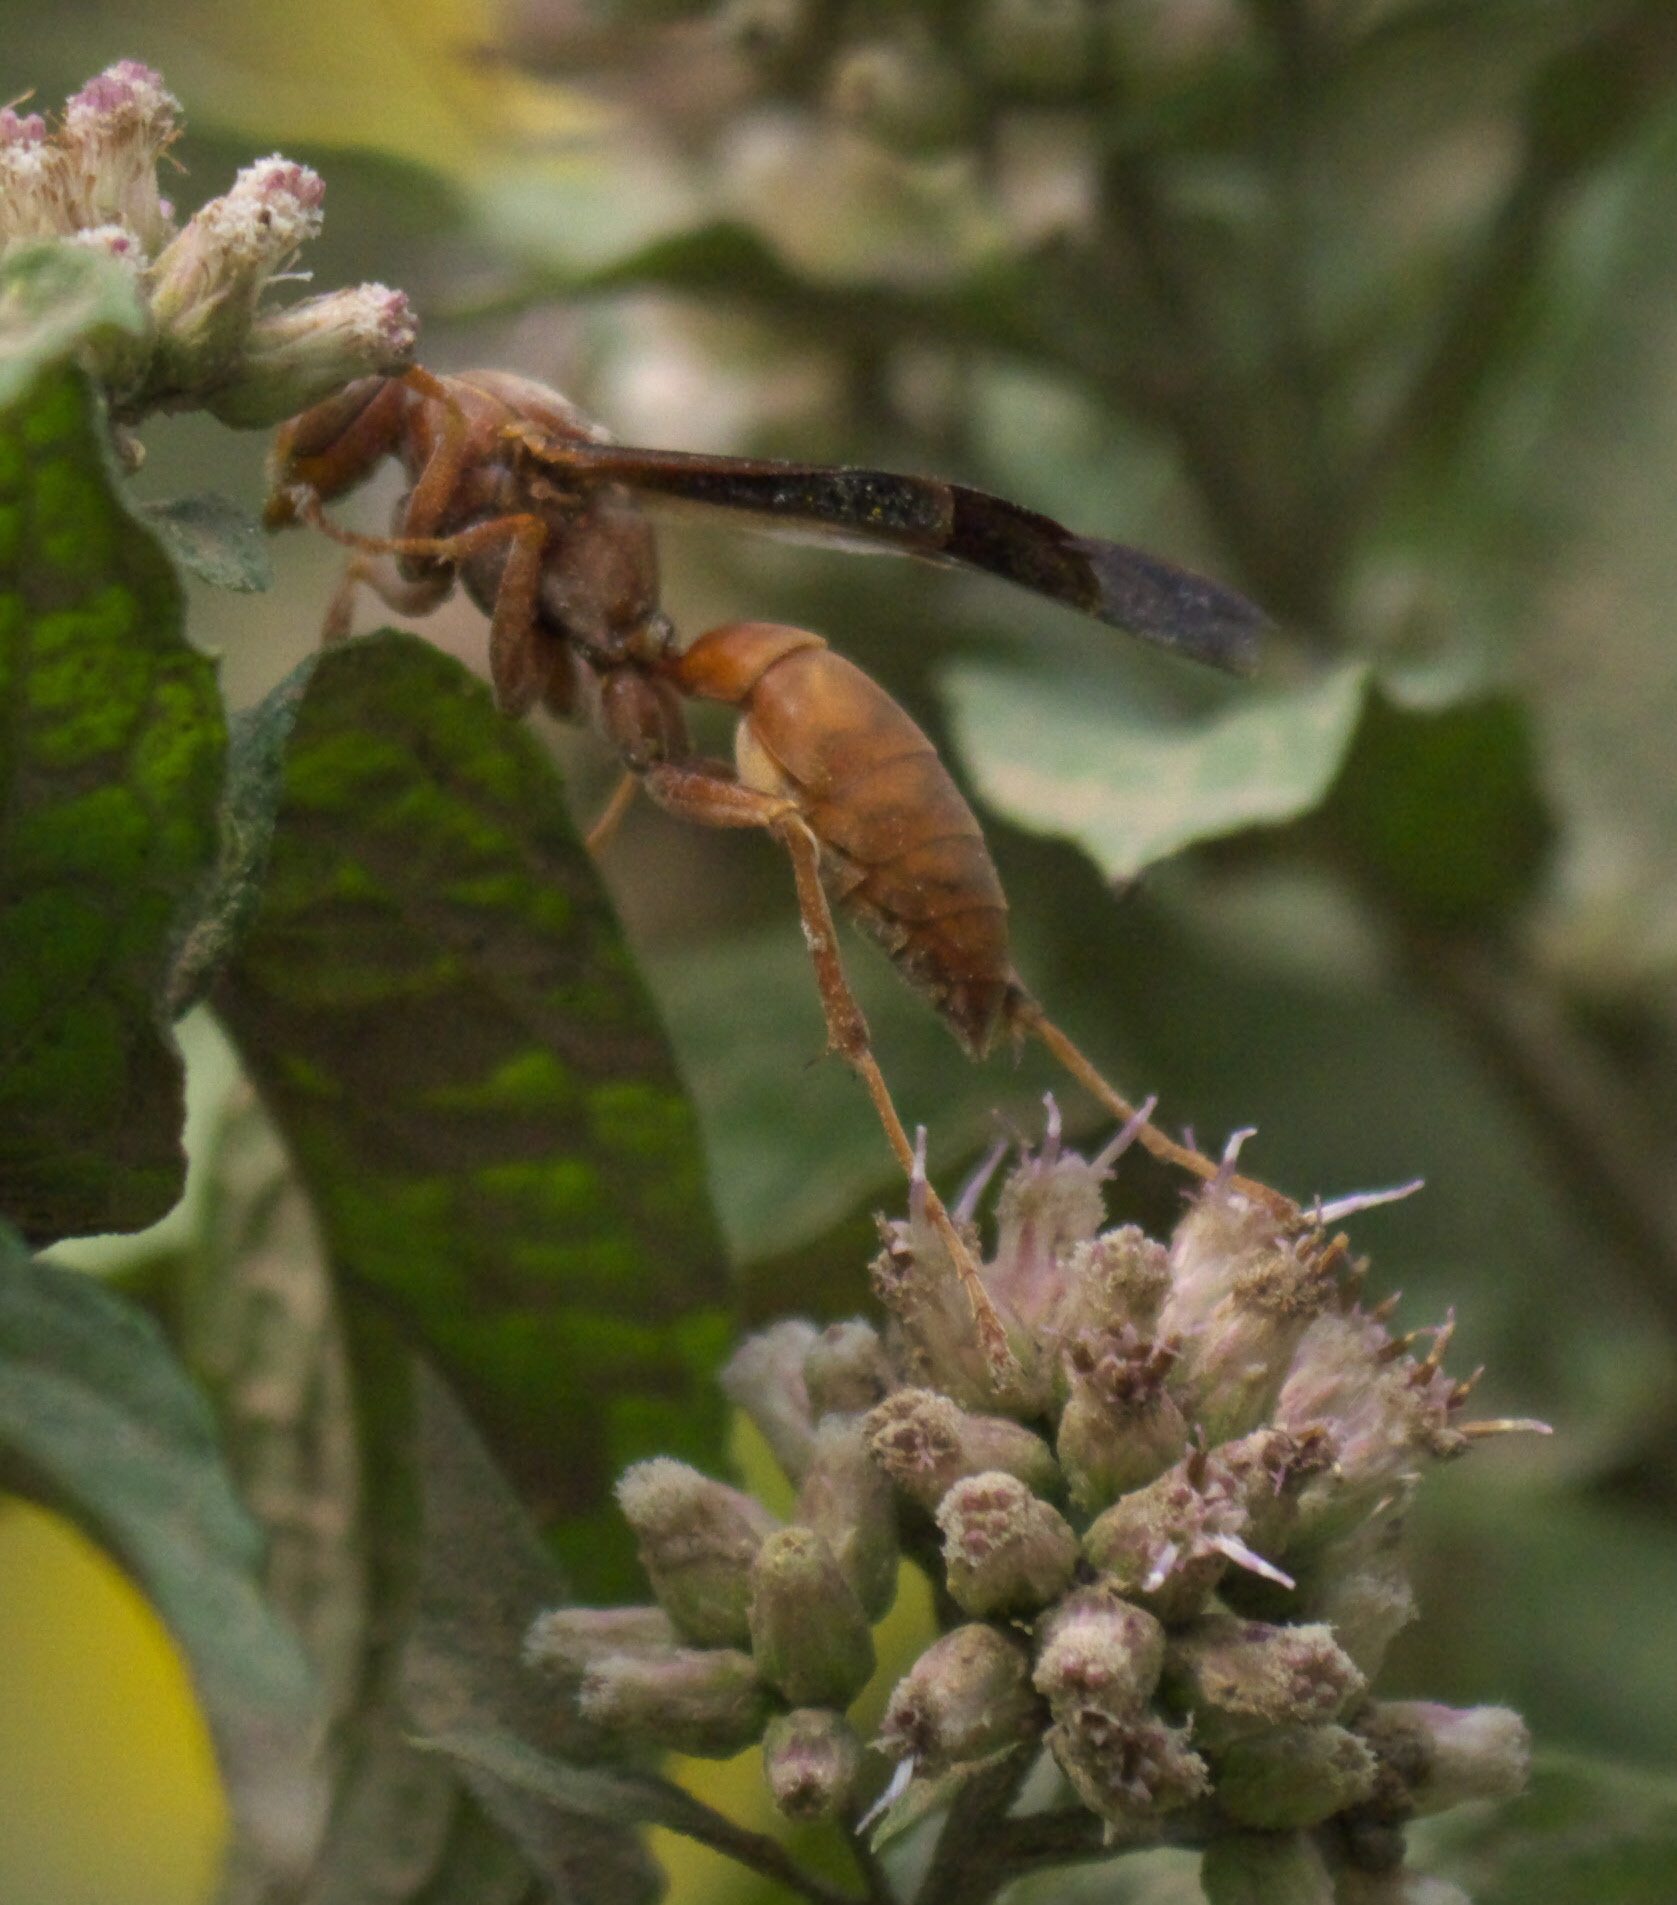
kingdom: Animalia
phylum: Arthropoda
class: Insecta
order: Hymenoptera
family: Vespidae
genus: Fuscopolistes
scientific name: Fuscopolistes
